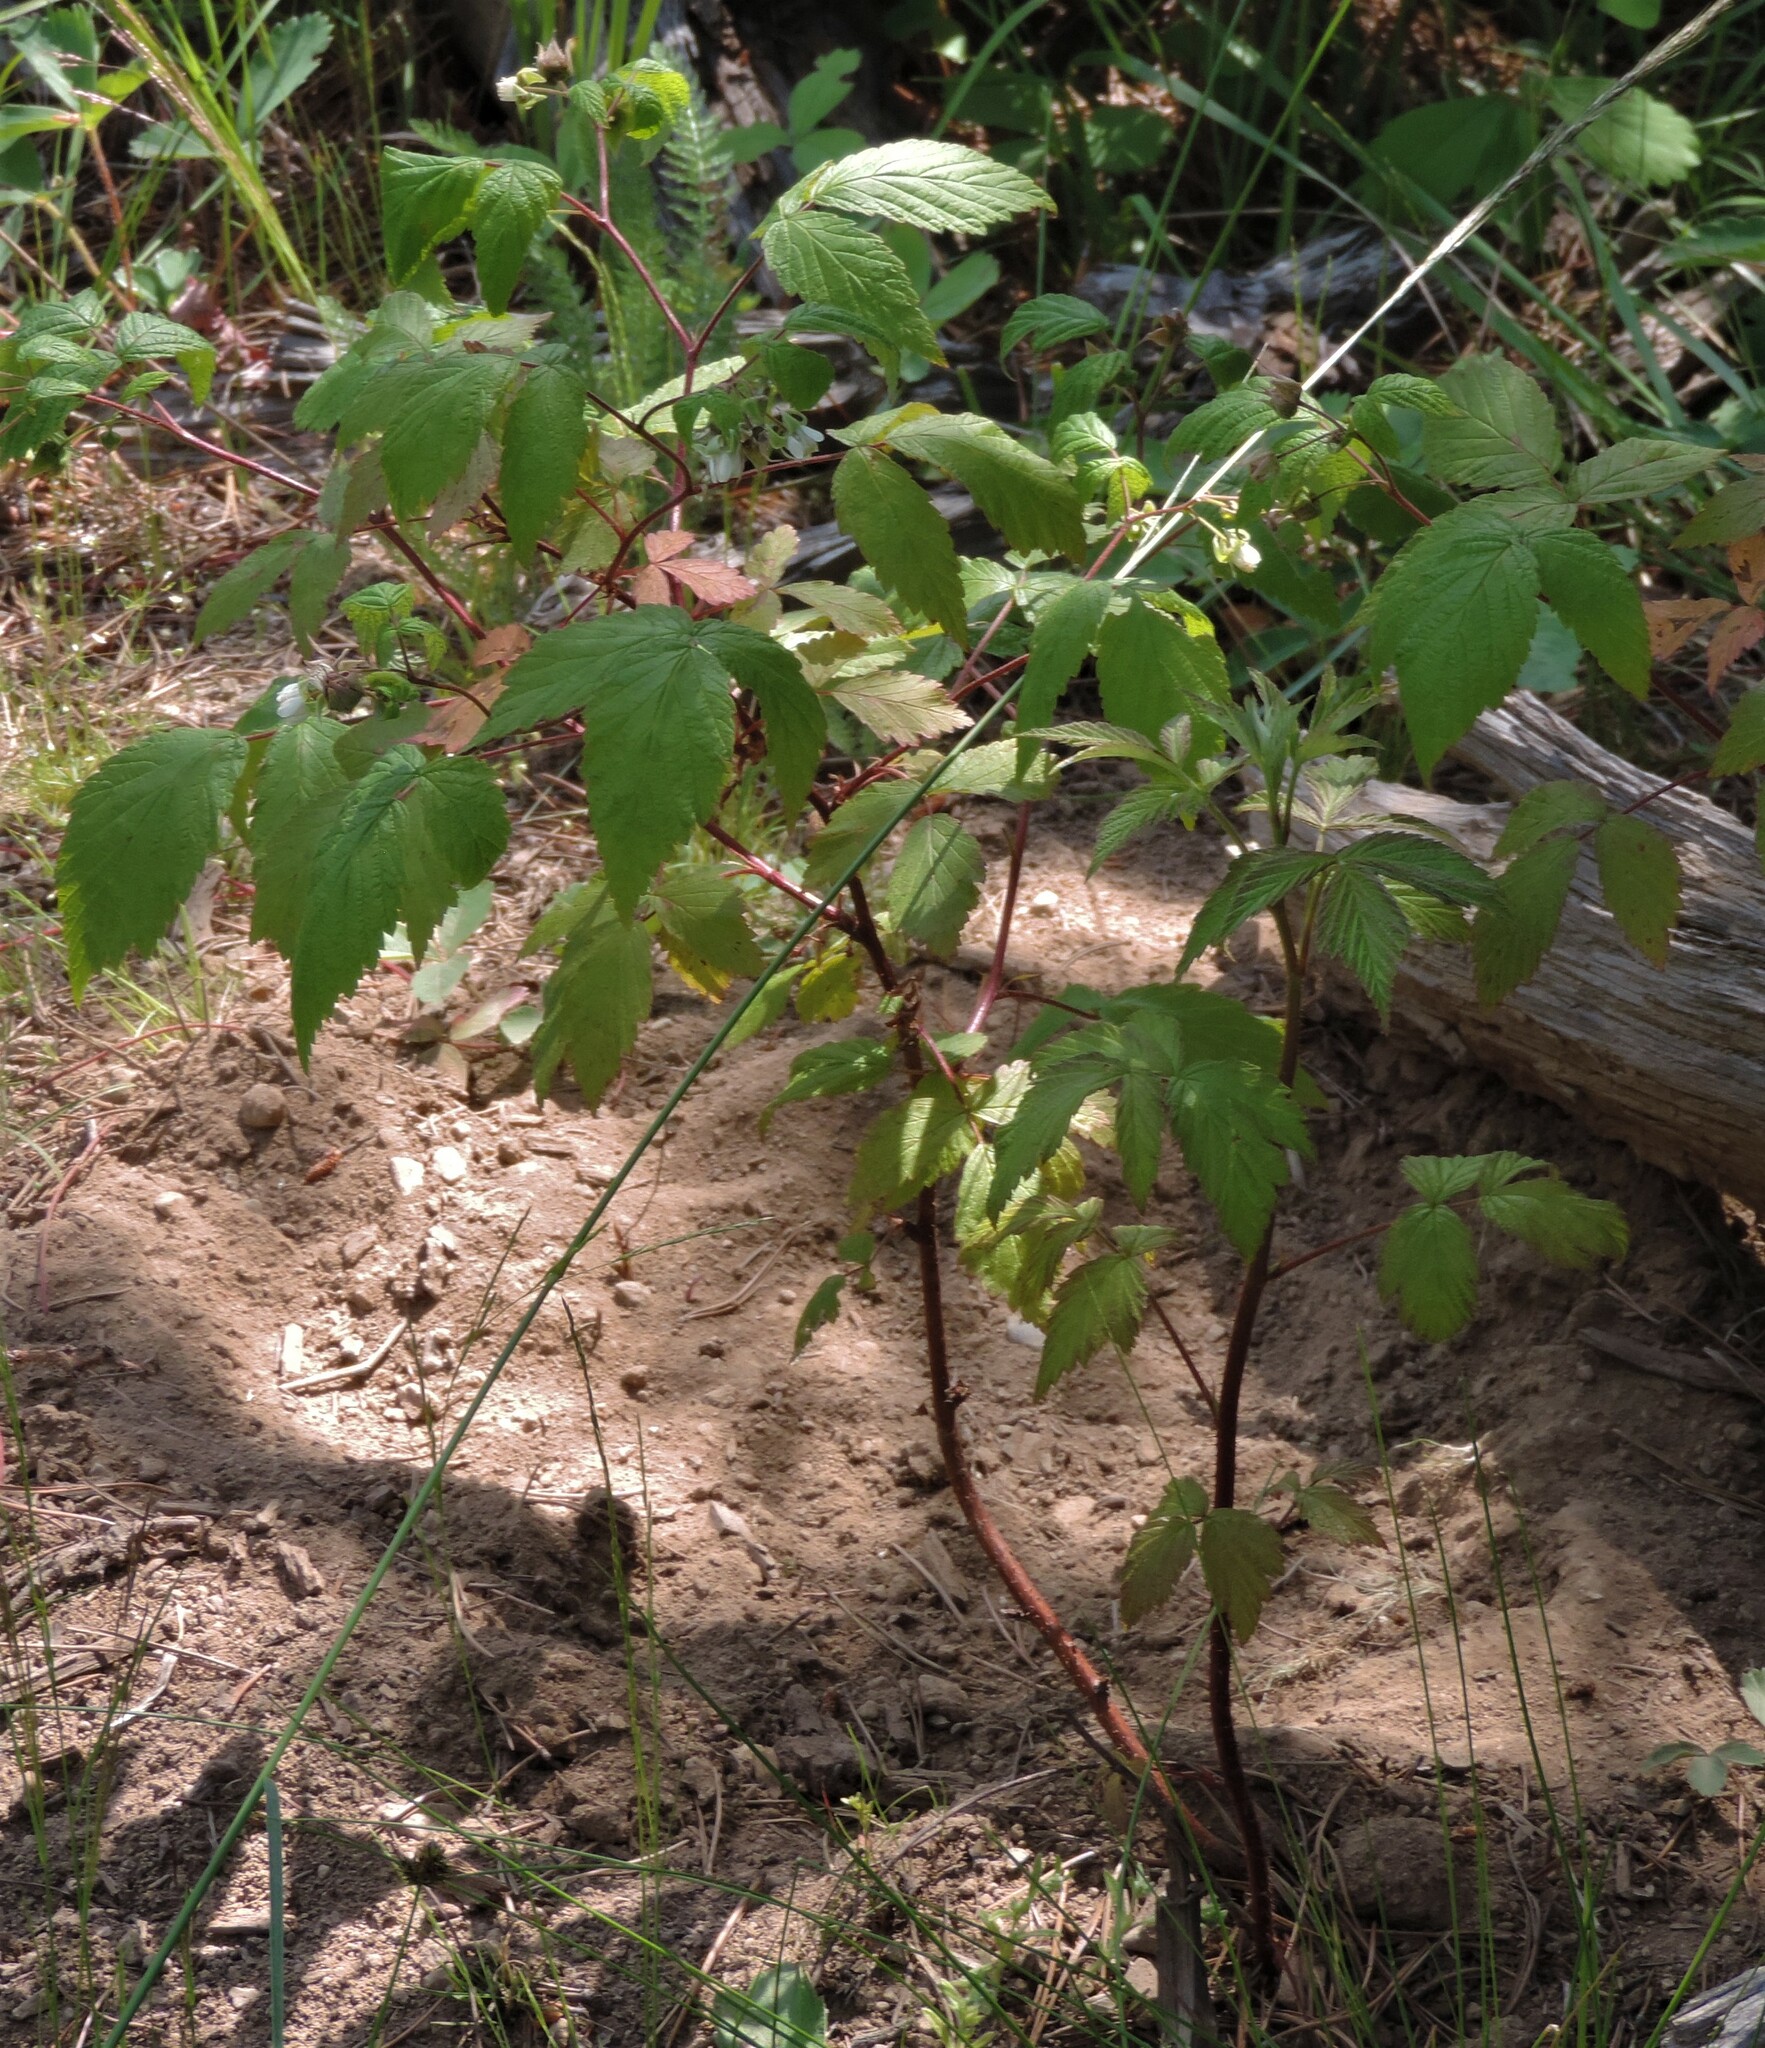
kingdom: Plantae
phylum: Tracheophyta
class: Magnoliopsida
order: Rosales
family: Rosaceae
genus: Rubus
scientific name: Rubus idaeus
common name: Raspberry
